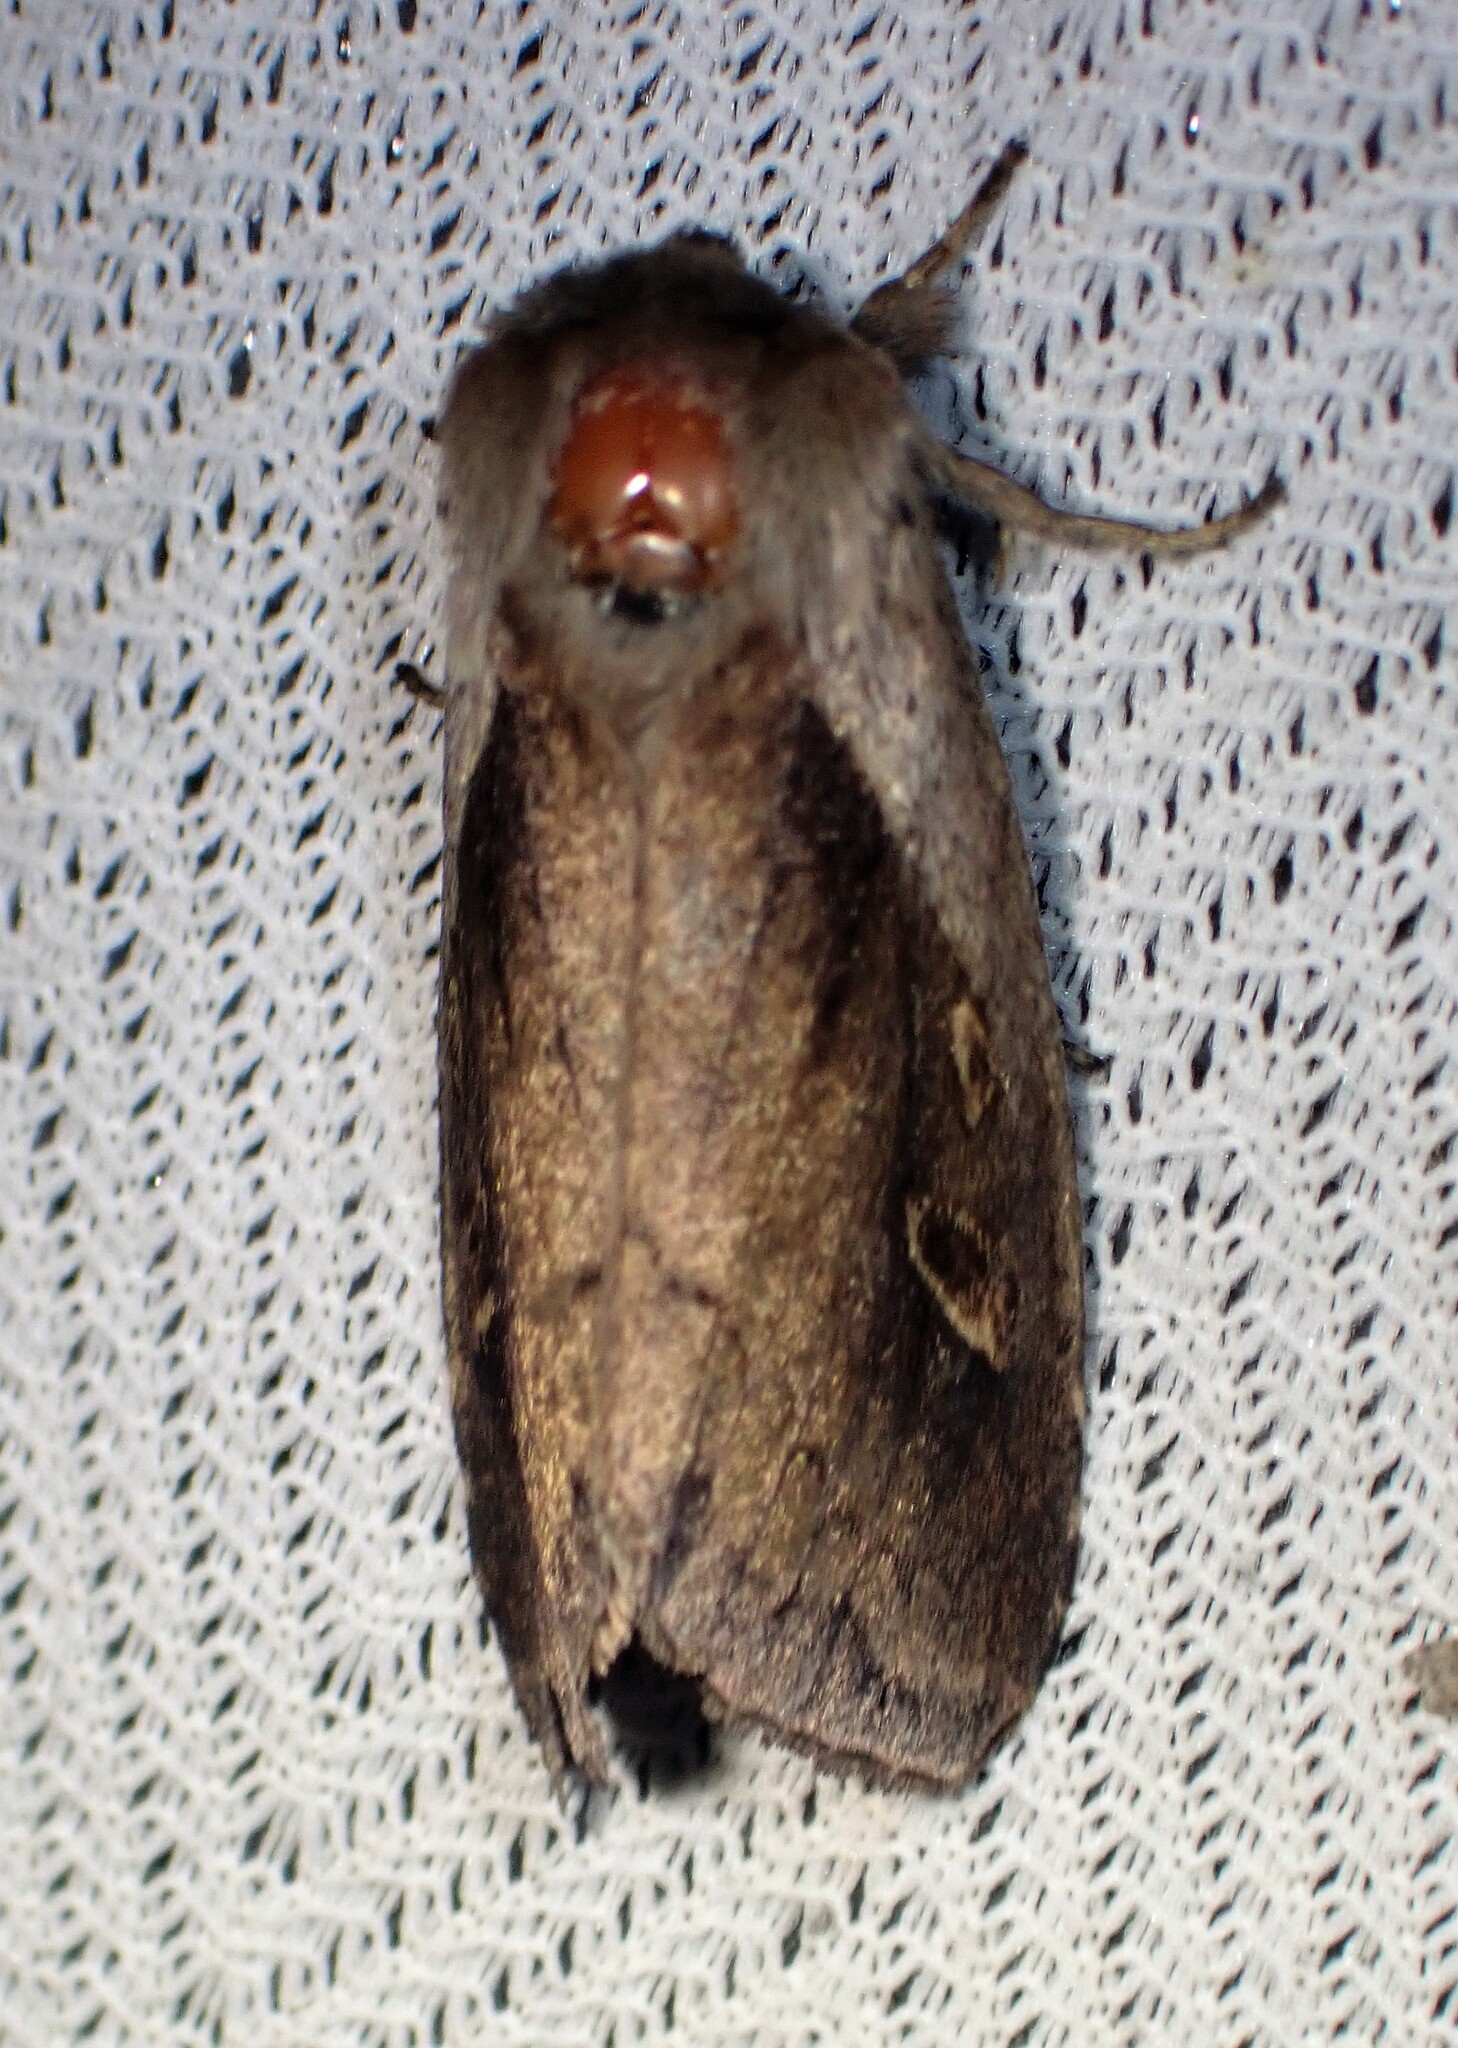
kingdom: Animalia
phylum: Arthropoda
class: Insecta
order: Lepidoptera
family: Noctuidae
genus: Bellura
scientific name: Bellura obliqua
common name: Cattail borer moth
